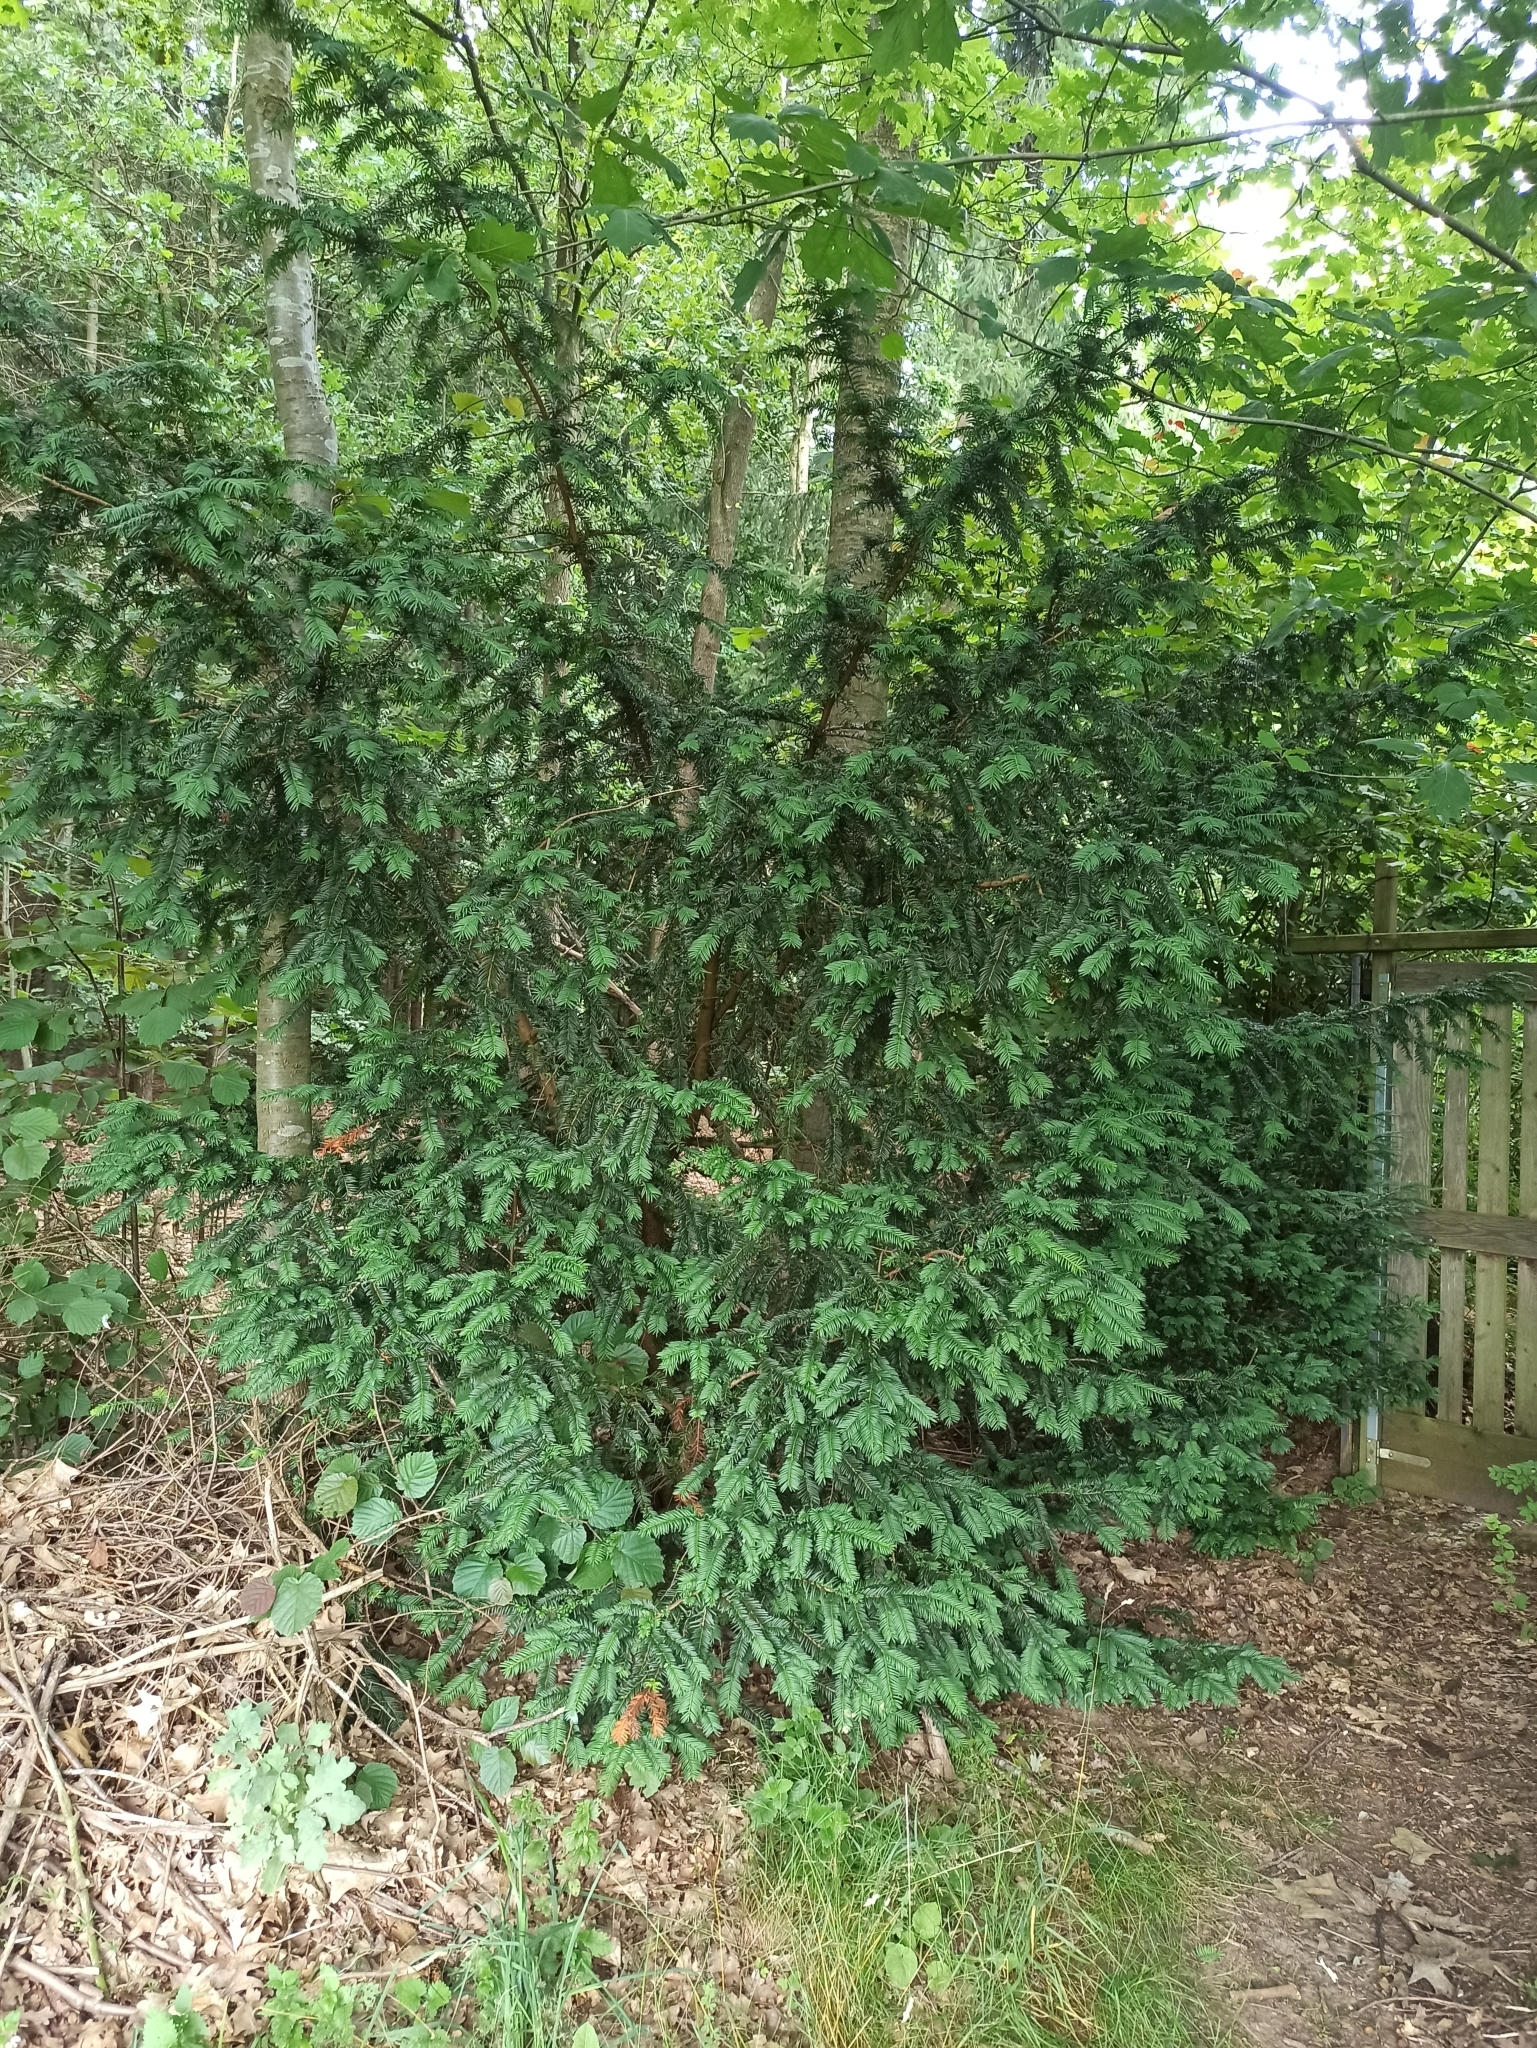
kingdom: Plantae
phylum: Tracheophyta
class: Pinopsida
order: Pinales
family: Taxaceae
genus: Taxus
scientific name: Taxus baccata
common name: Yew
